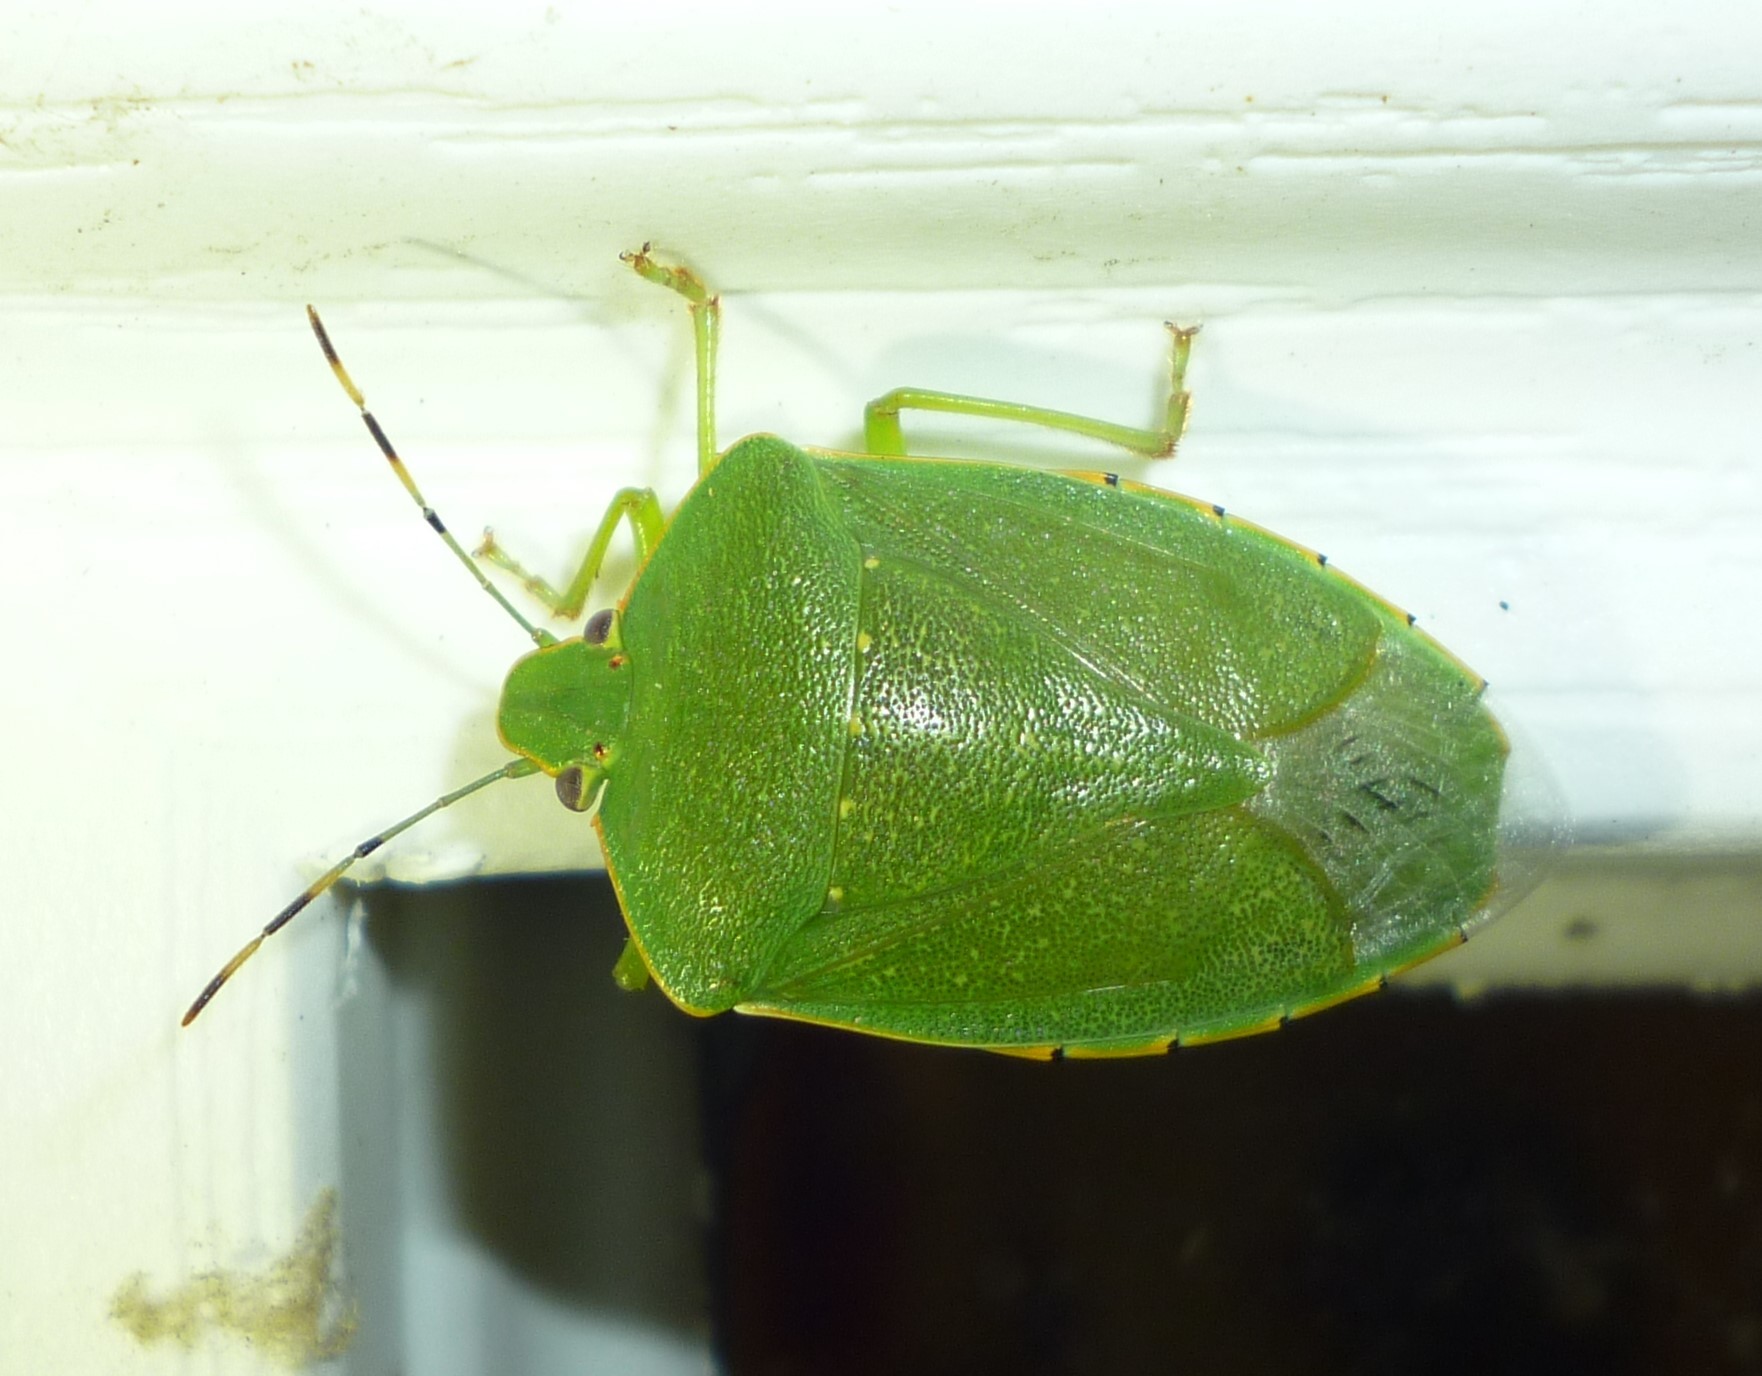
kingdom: Animalia
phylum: Arthropoda
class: Insecta
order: Hemiptera
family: Pentatomidae
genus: Chinavia
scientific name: Chinavia hilaris
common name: Green stink bug
